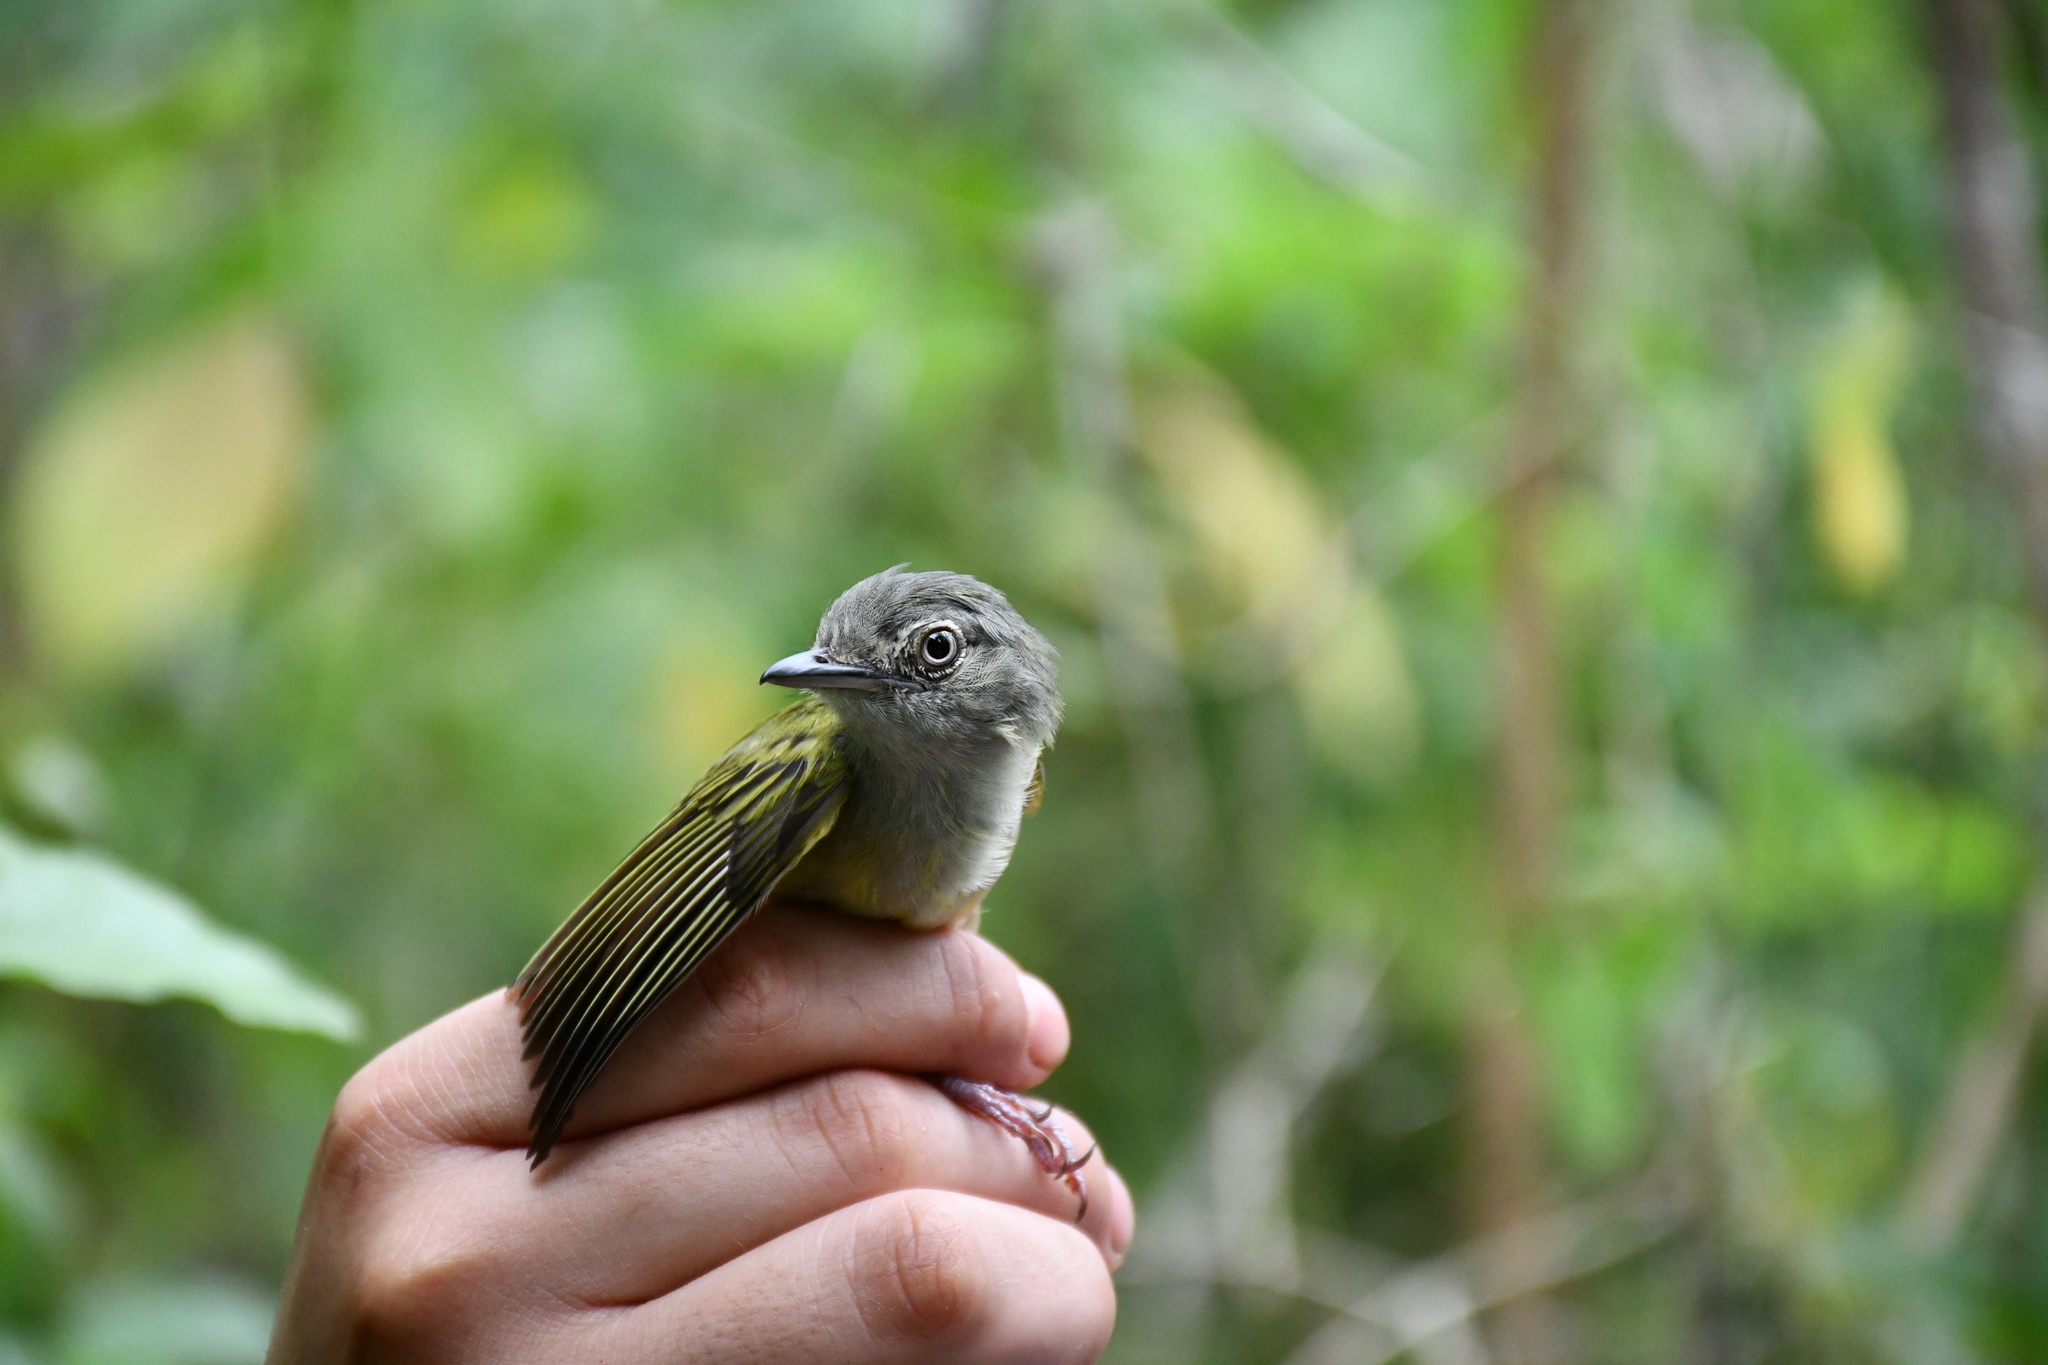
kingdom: Animalia
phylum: Chordata
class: Aves
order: Passeriformes
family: Tyrannidae
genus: Tolmomyias
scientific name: Tolmomyias sulphurescens
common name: Yellow-olive flycatcher
